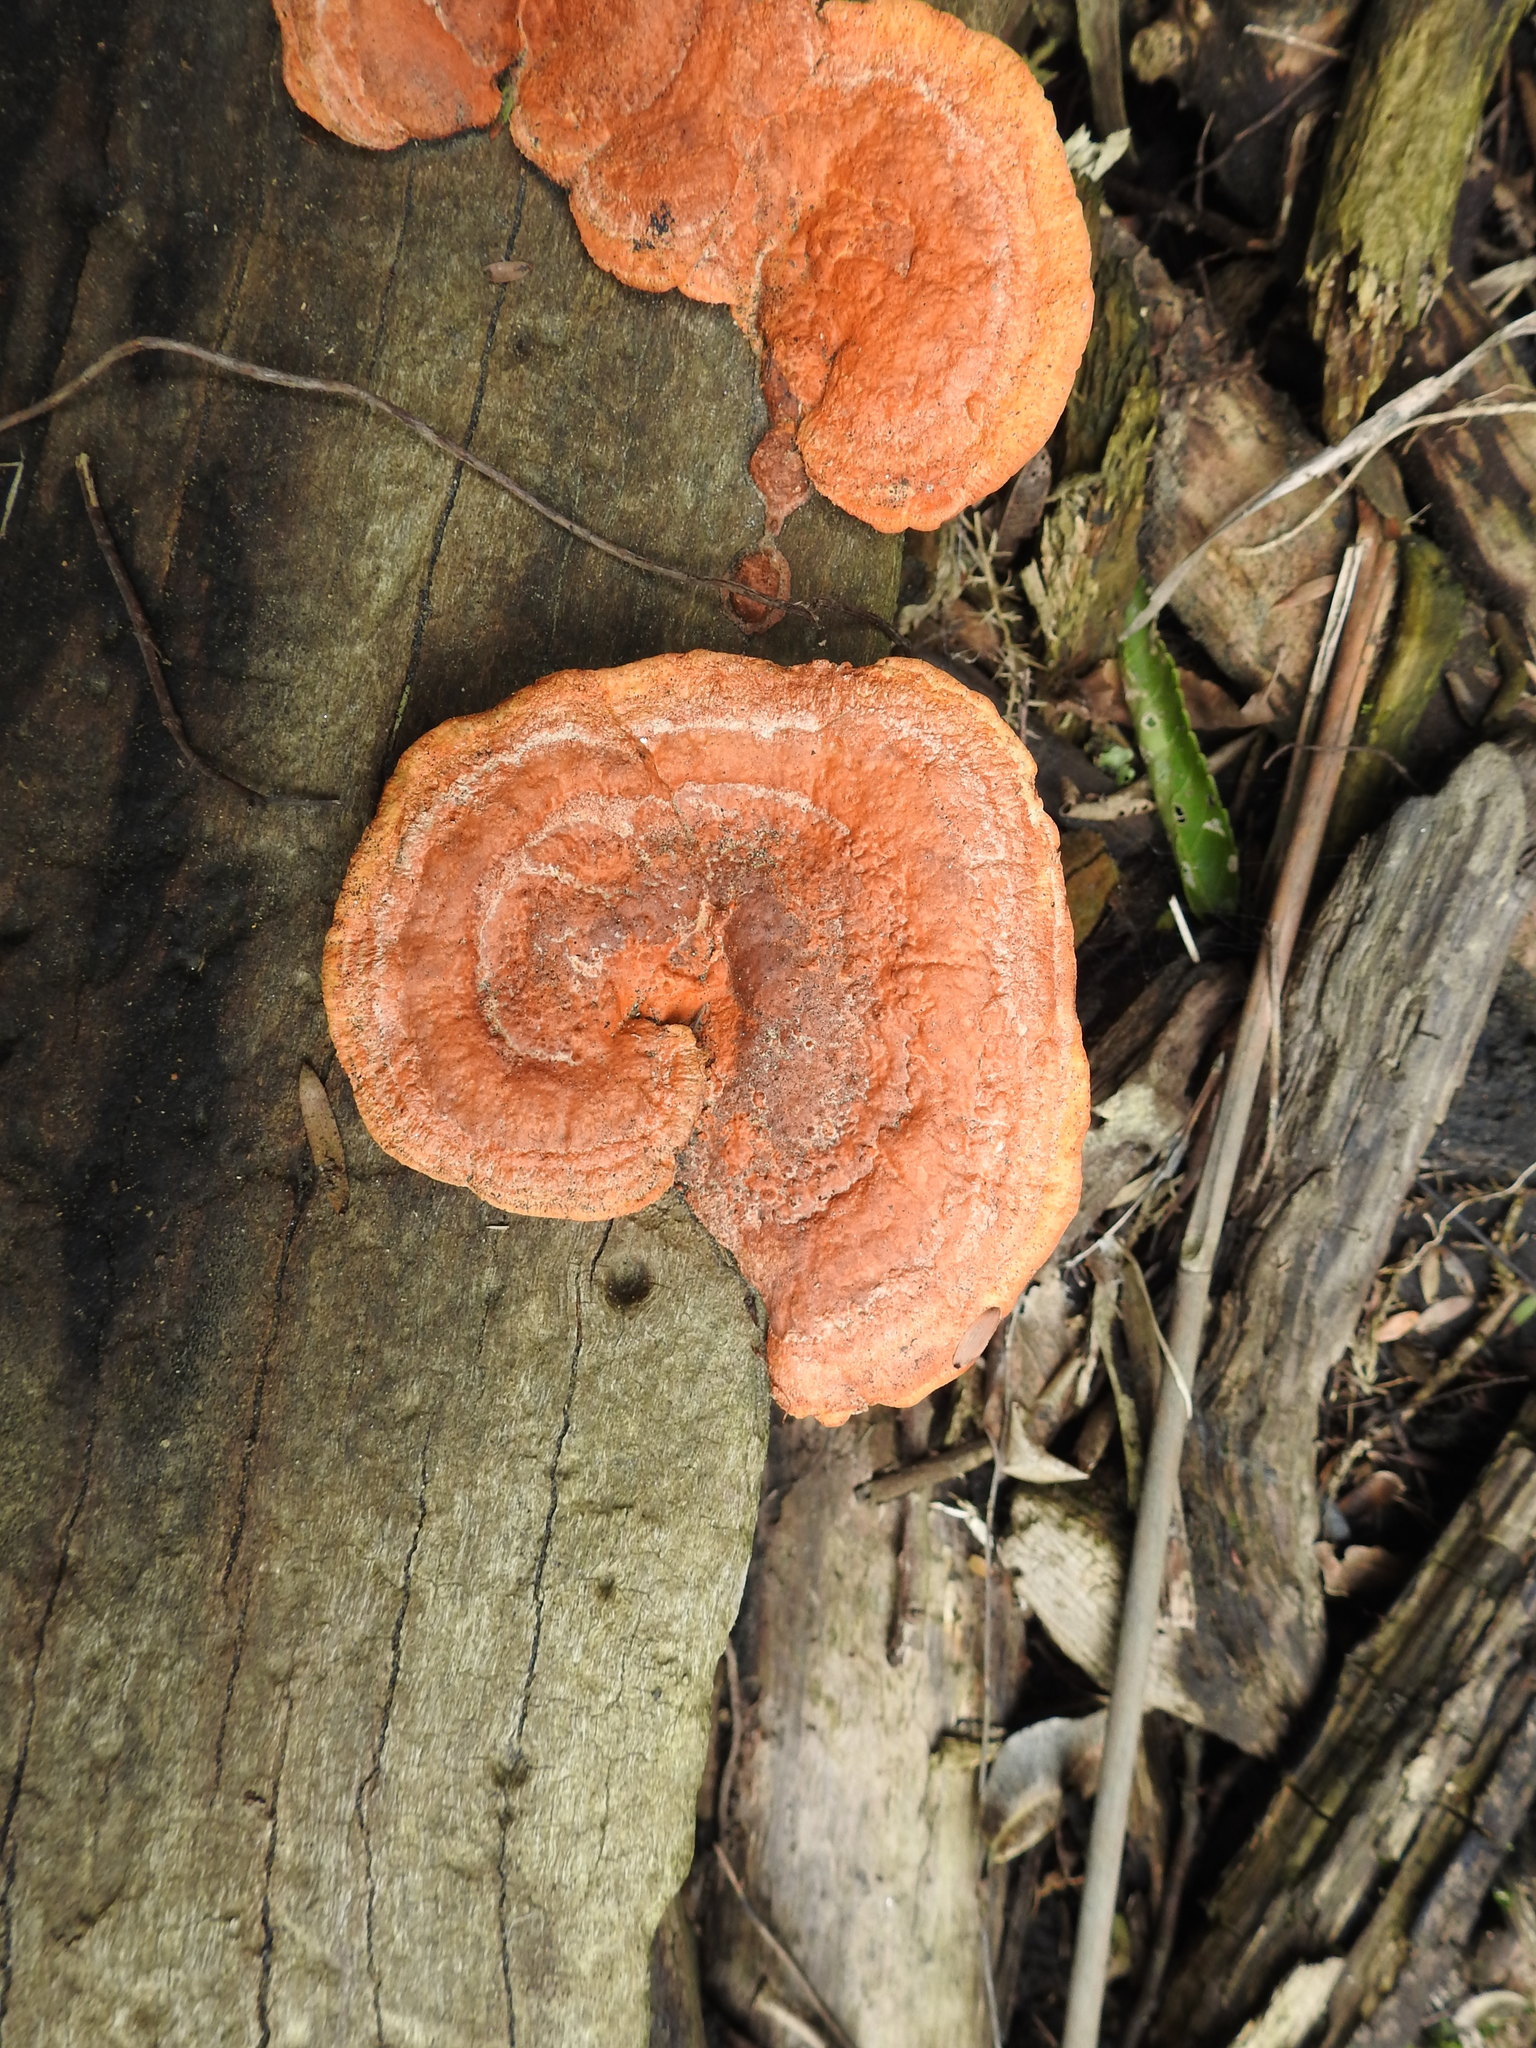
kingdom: Fungi
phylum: Basidiomycota
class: Agaricomycetes
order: Polyporales
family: Polyporaceae
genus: Trametes
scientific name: Trametes coccinea
